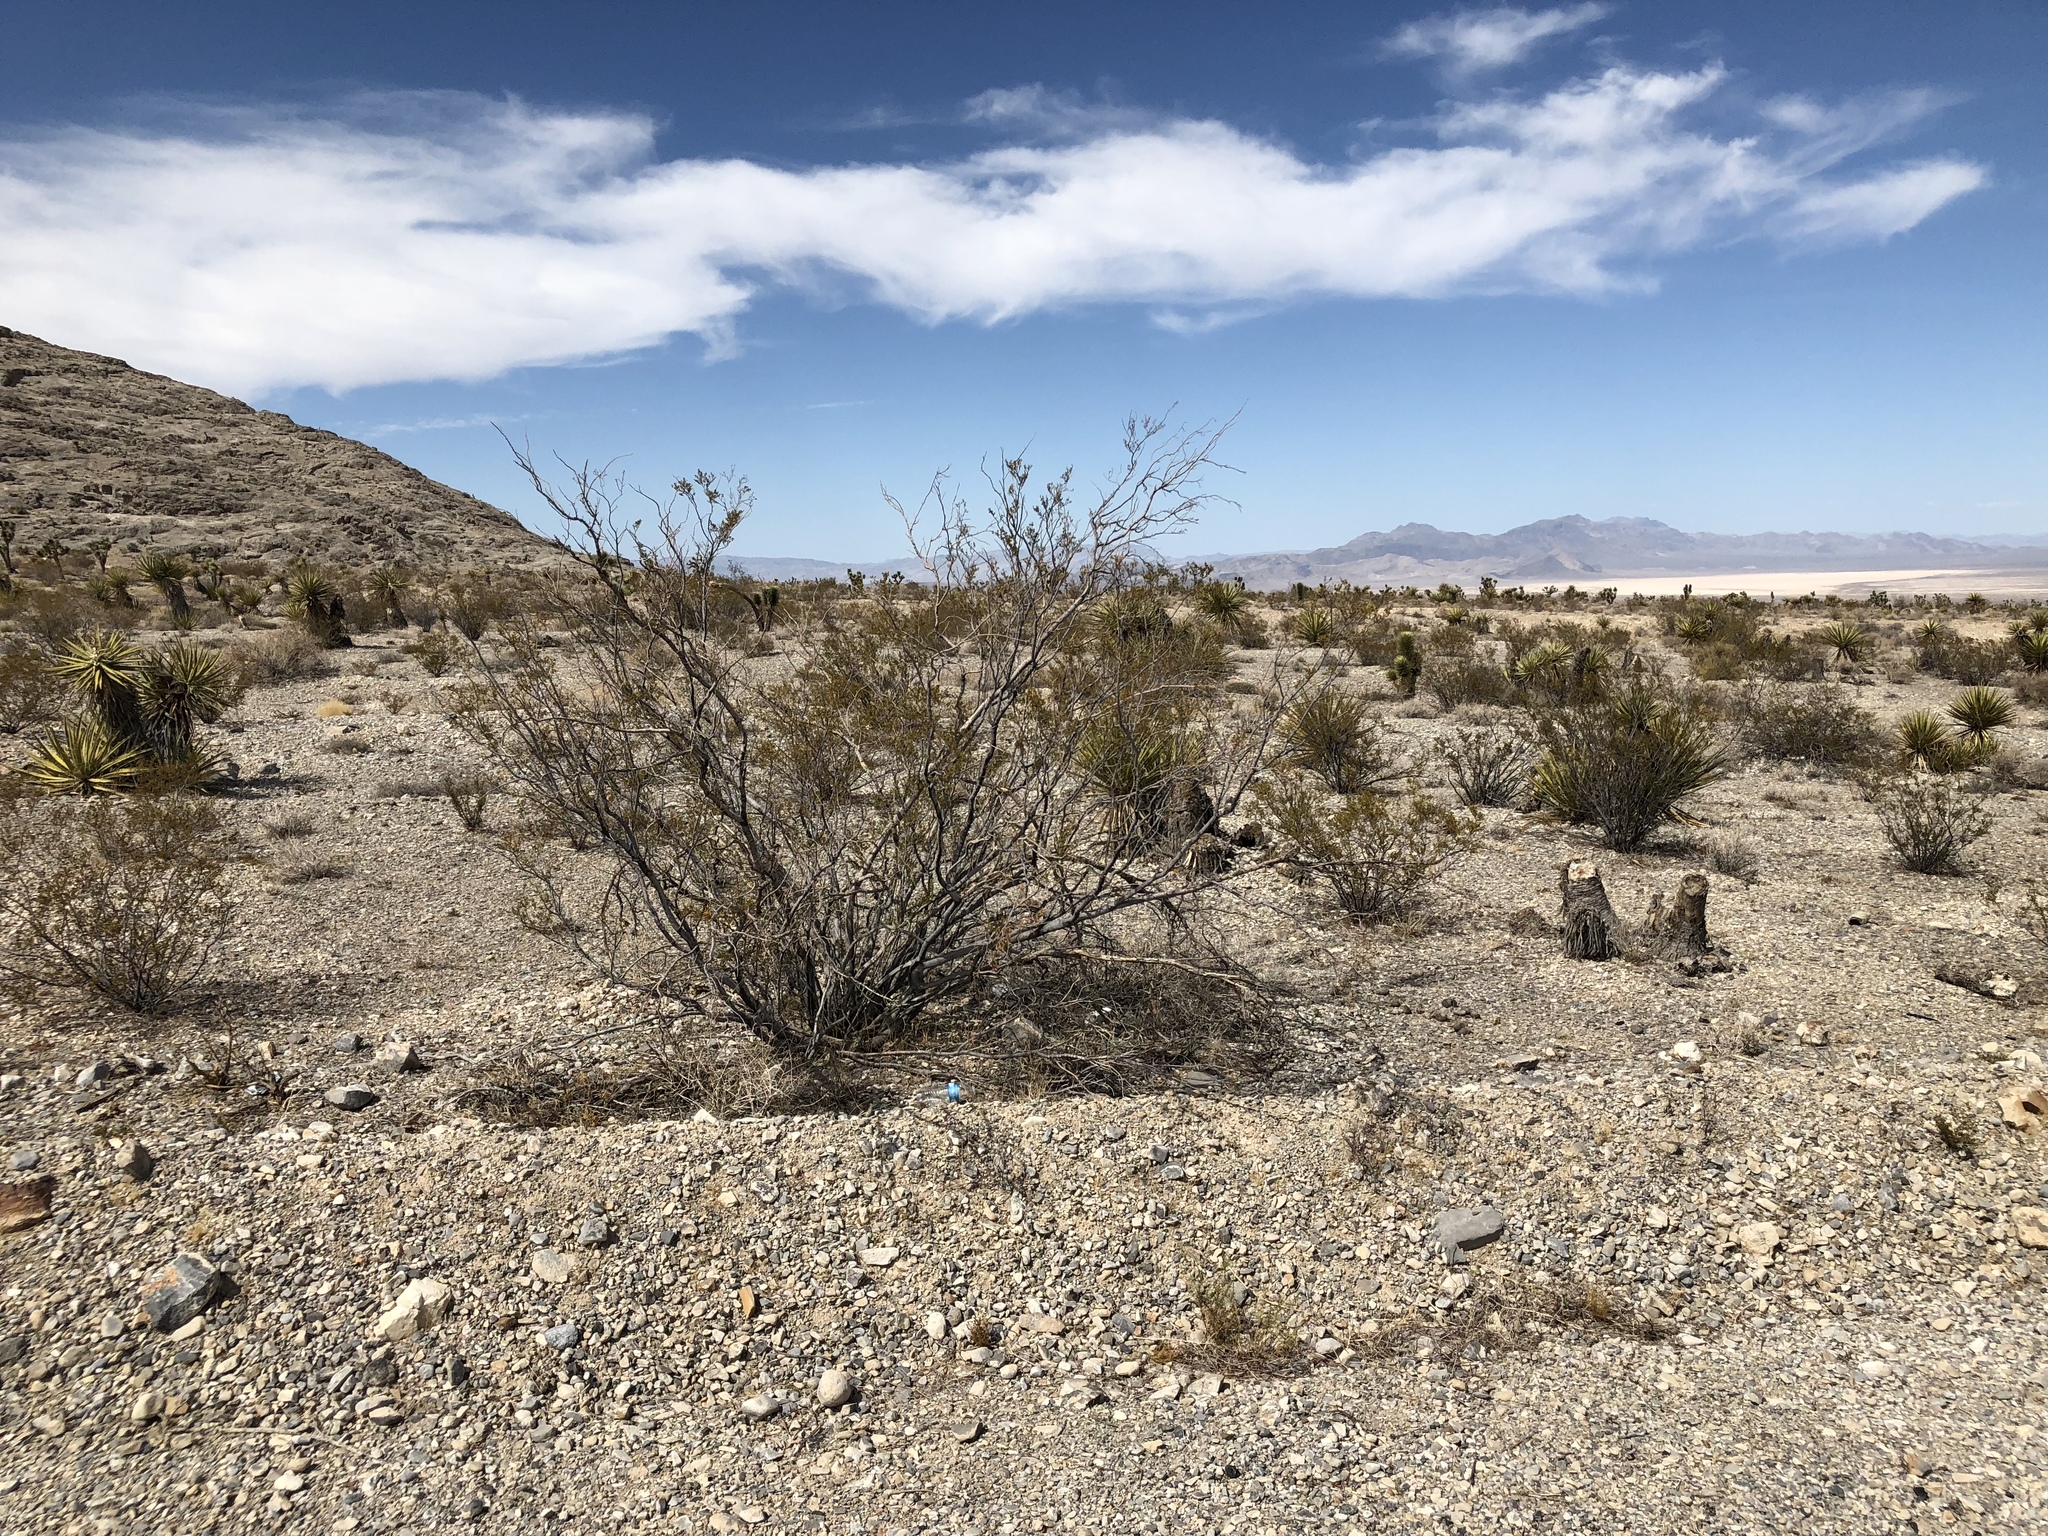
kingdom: Plantae
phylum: Tracheophyta
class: Magnoliopsida
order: Zygophyllales
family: Zygophyllaceae
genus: Larrea
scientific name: Larrea tridentata
